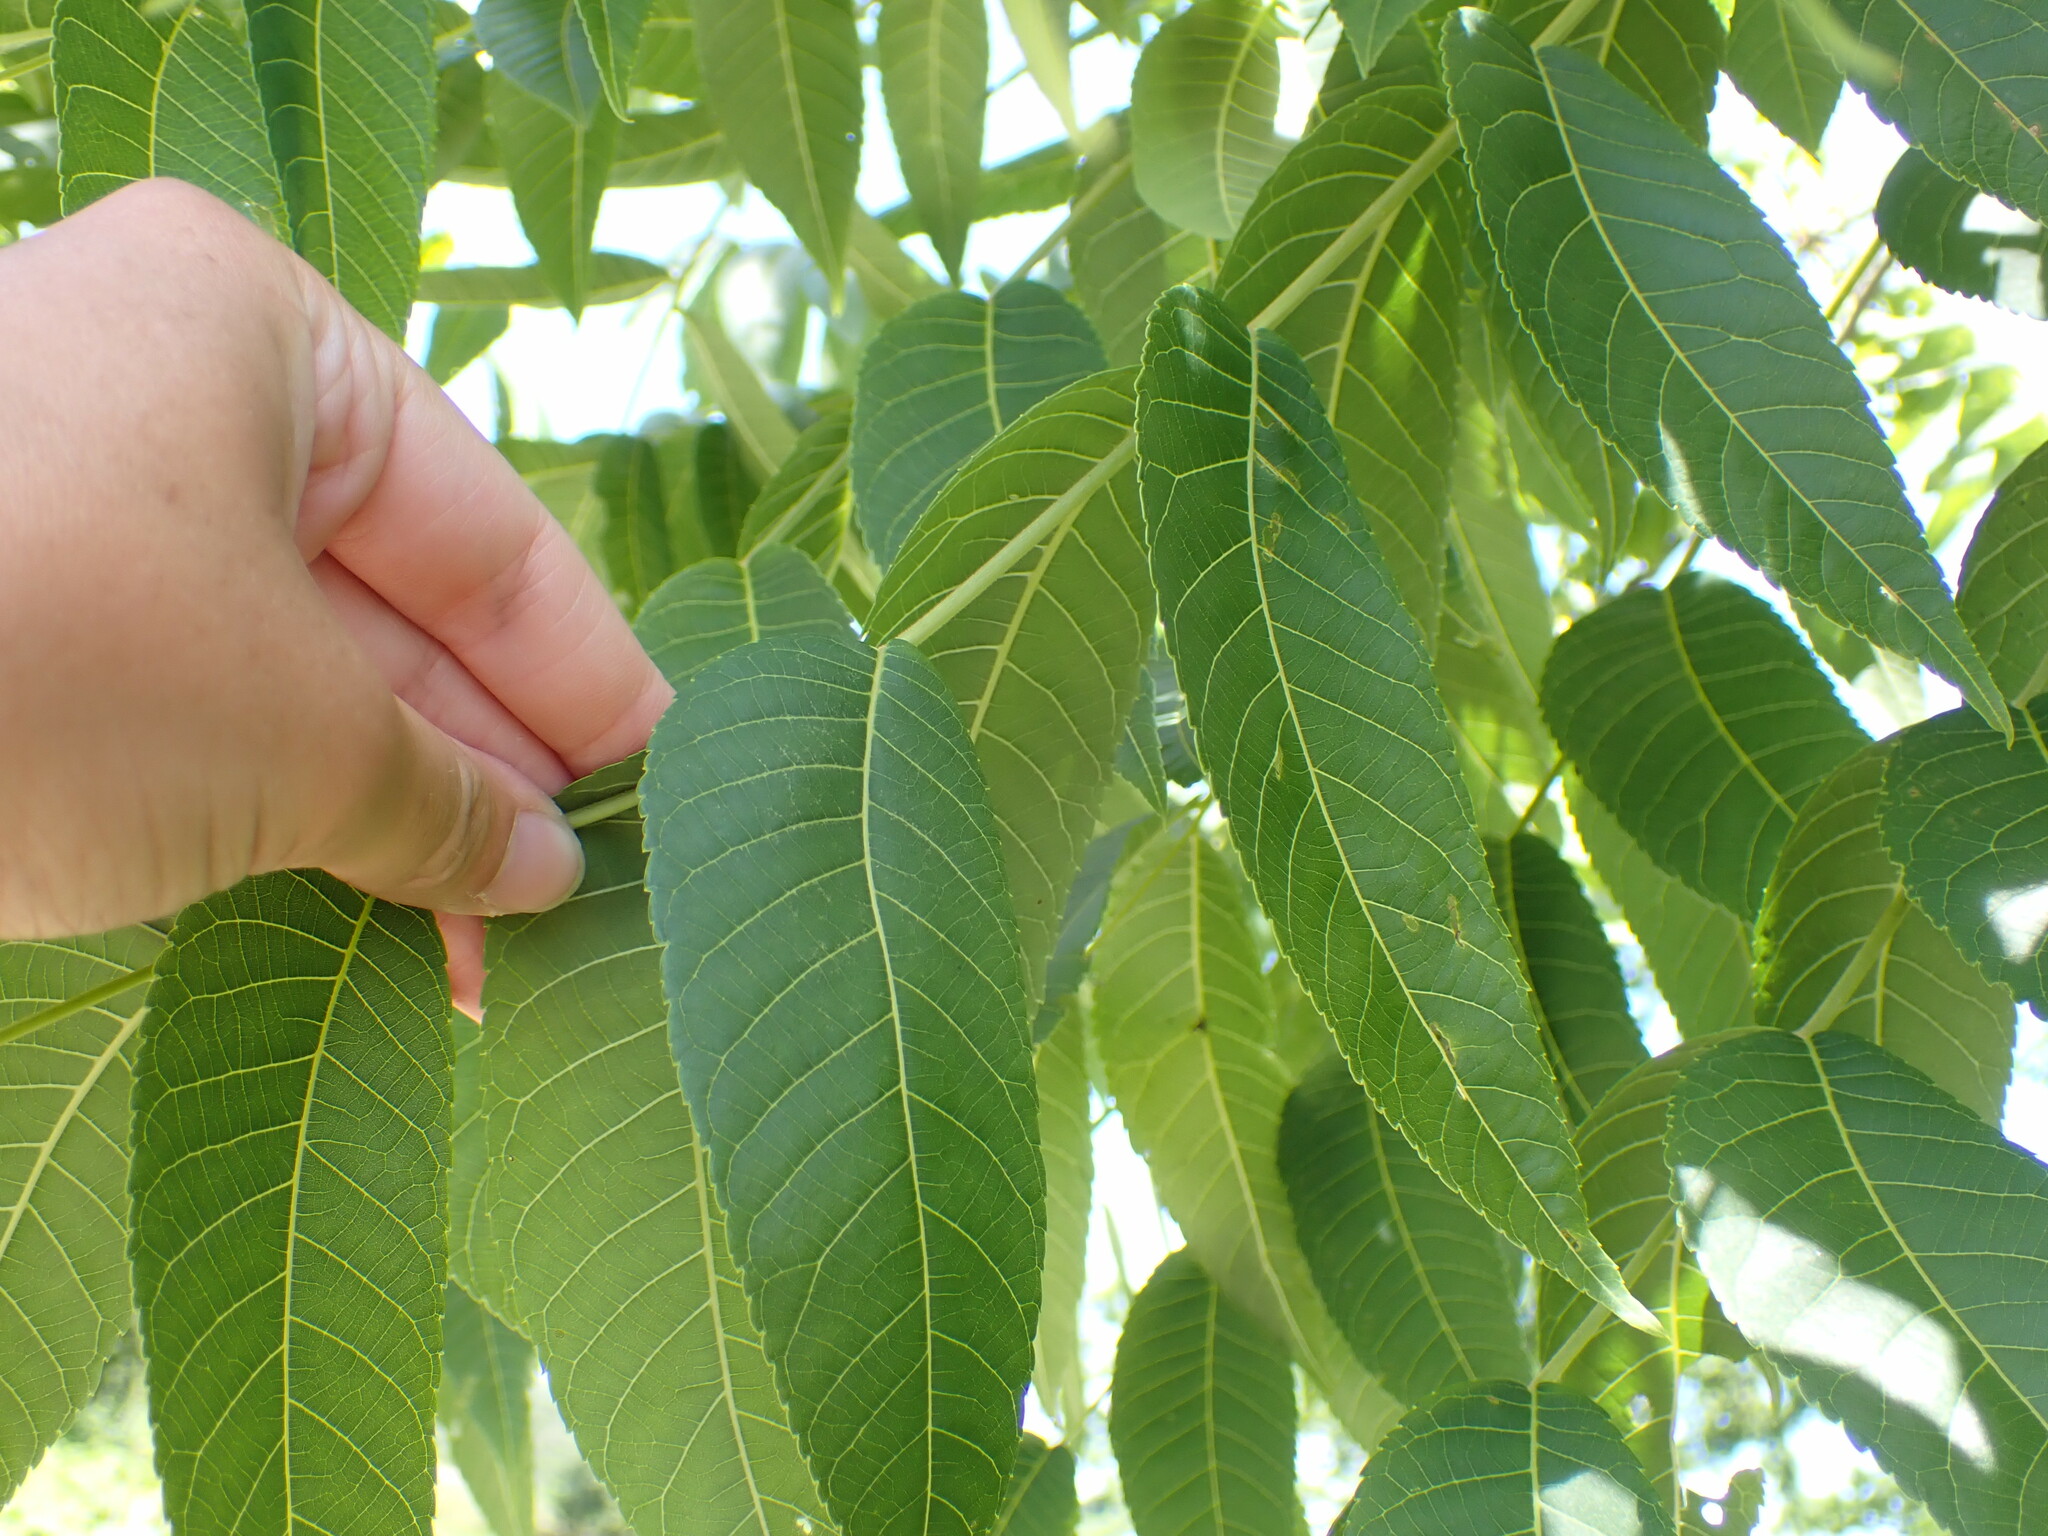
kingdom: Plantae
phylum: Tracheophyta
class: Magnoliopsida
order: Fagales
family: Juglandaceae
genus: Juglans
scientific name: Juglans nigra
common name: Black walnut
